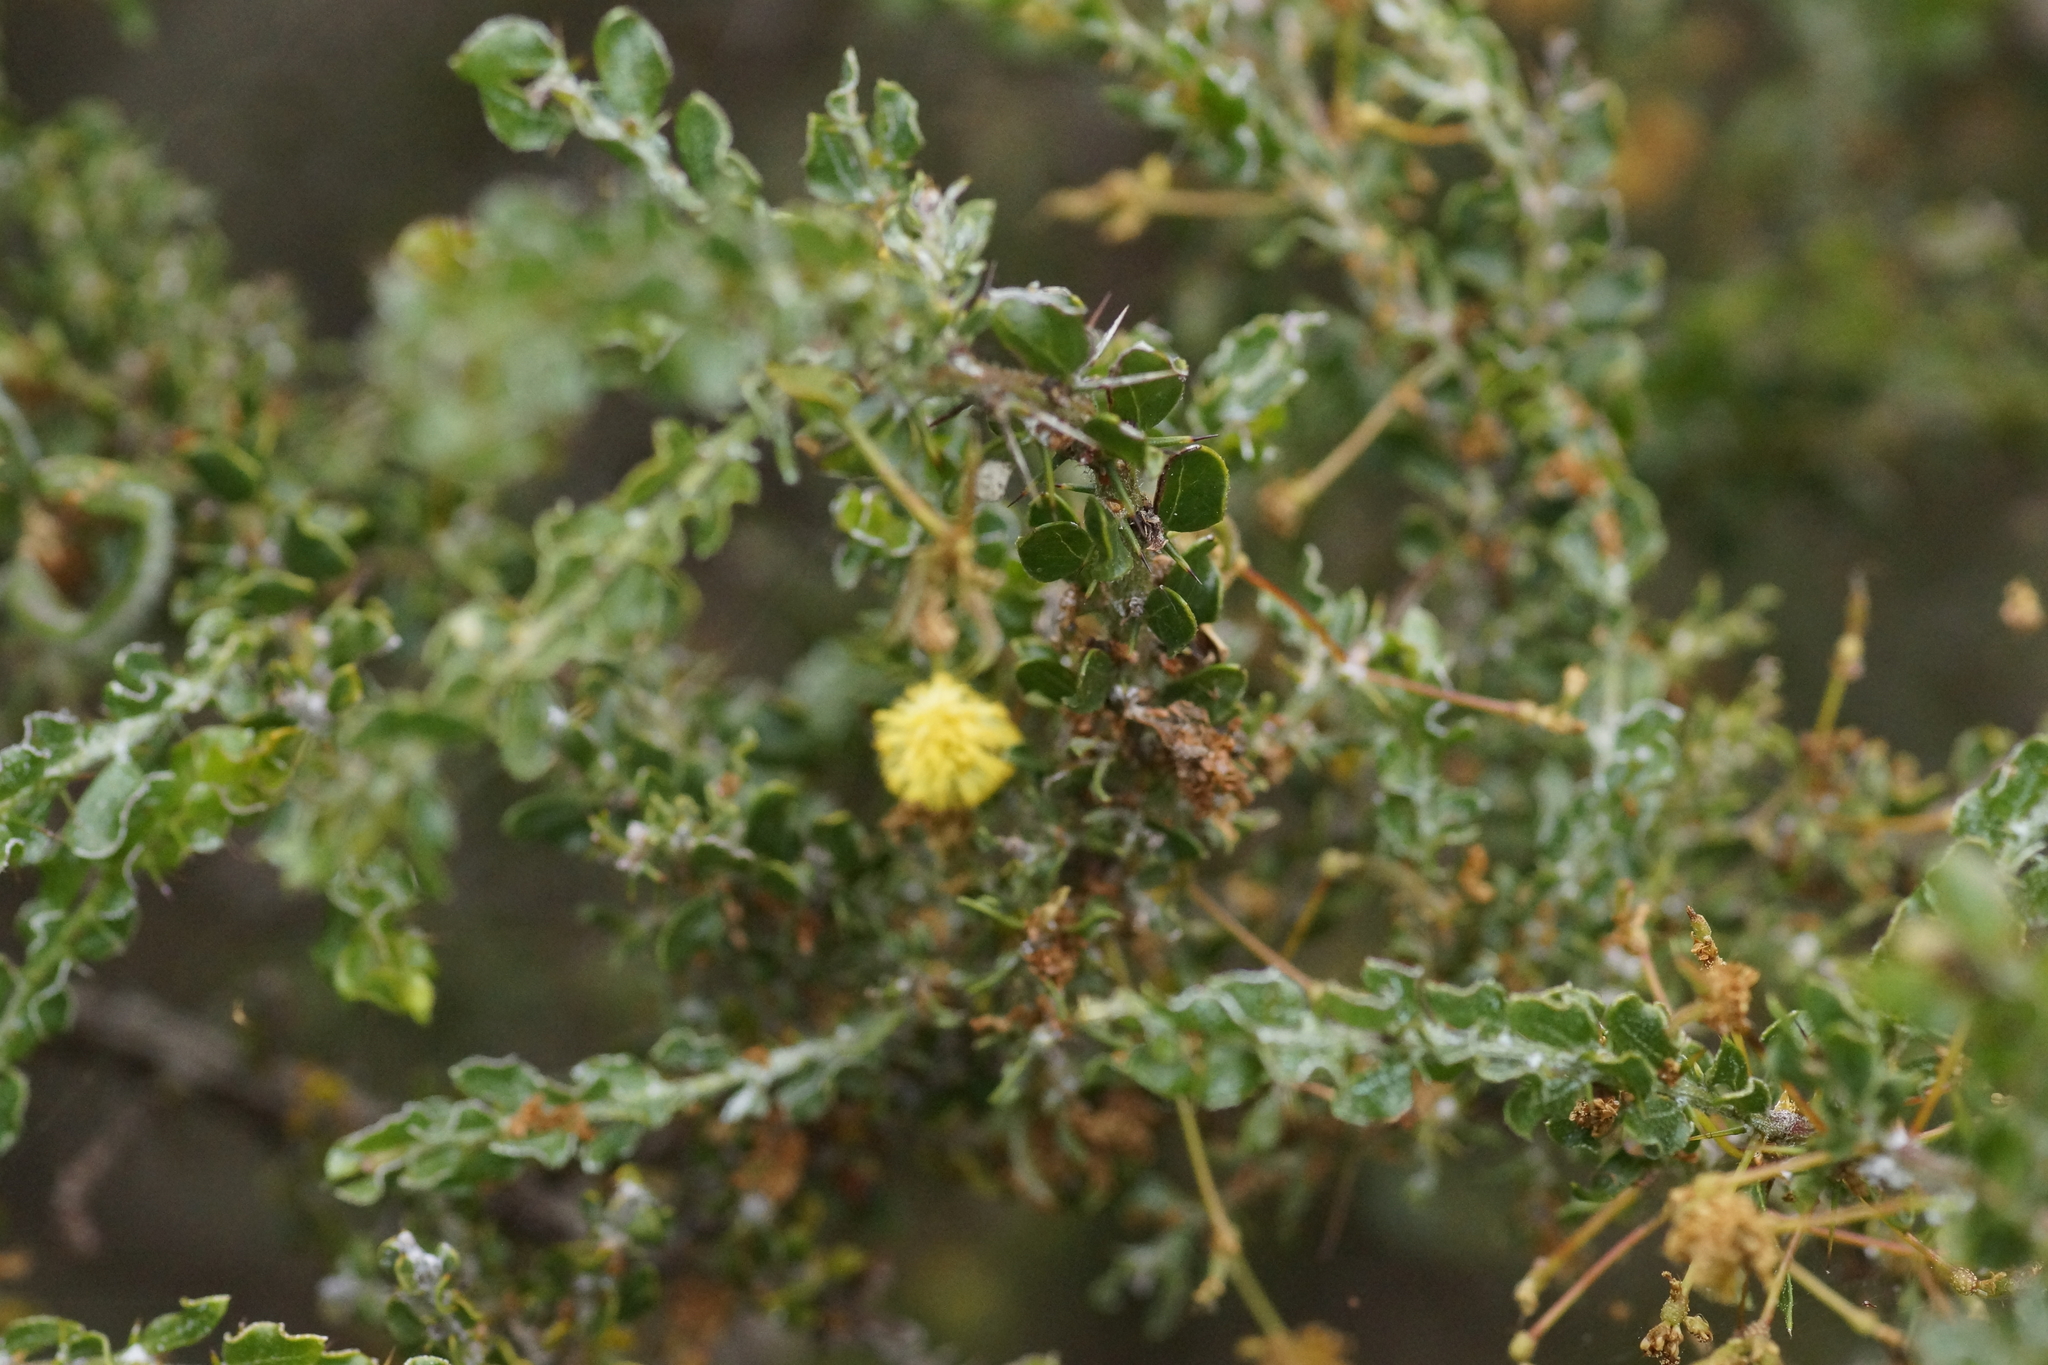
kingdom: Plantae
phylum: Tracheophyta
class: Magnoliopsida
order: Fabales
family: Fabaceae
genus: Acacia
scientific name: Acacia paradoxa
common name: Paradox acacia
